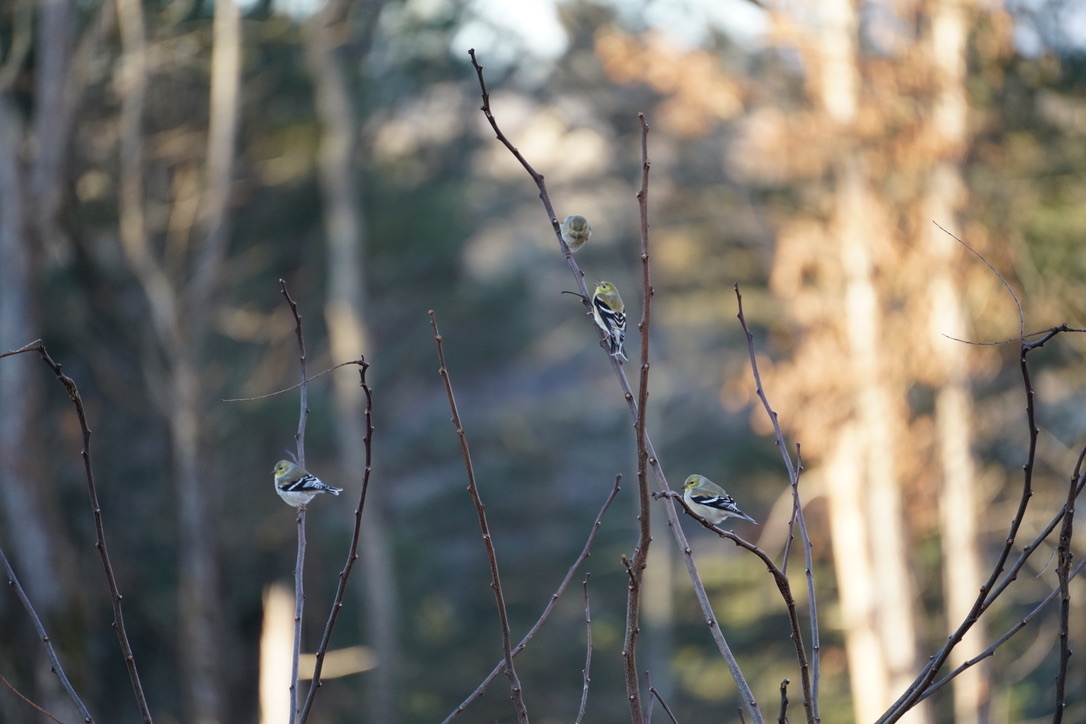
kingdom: Animalia
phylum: Chordata
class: Aves
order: Passeriformes
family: Fringillidae
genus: Spinus
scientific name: Spinus tristis
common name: American goldfinch
